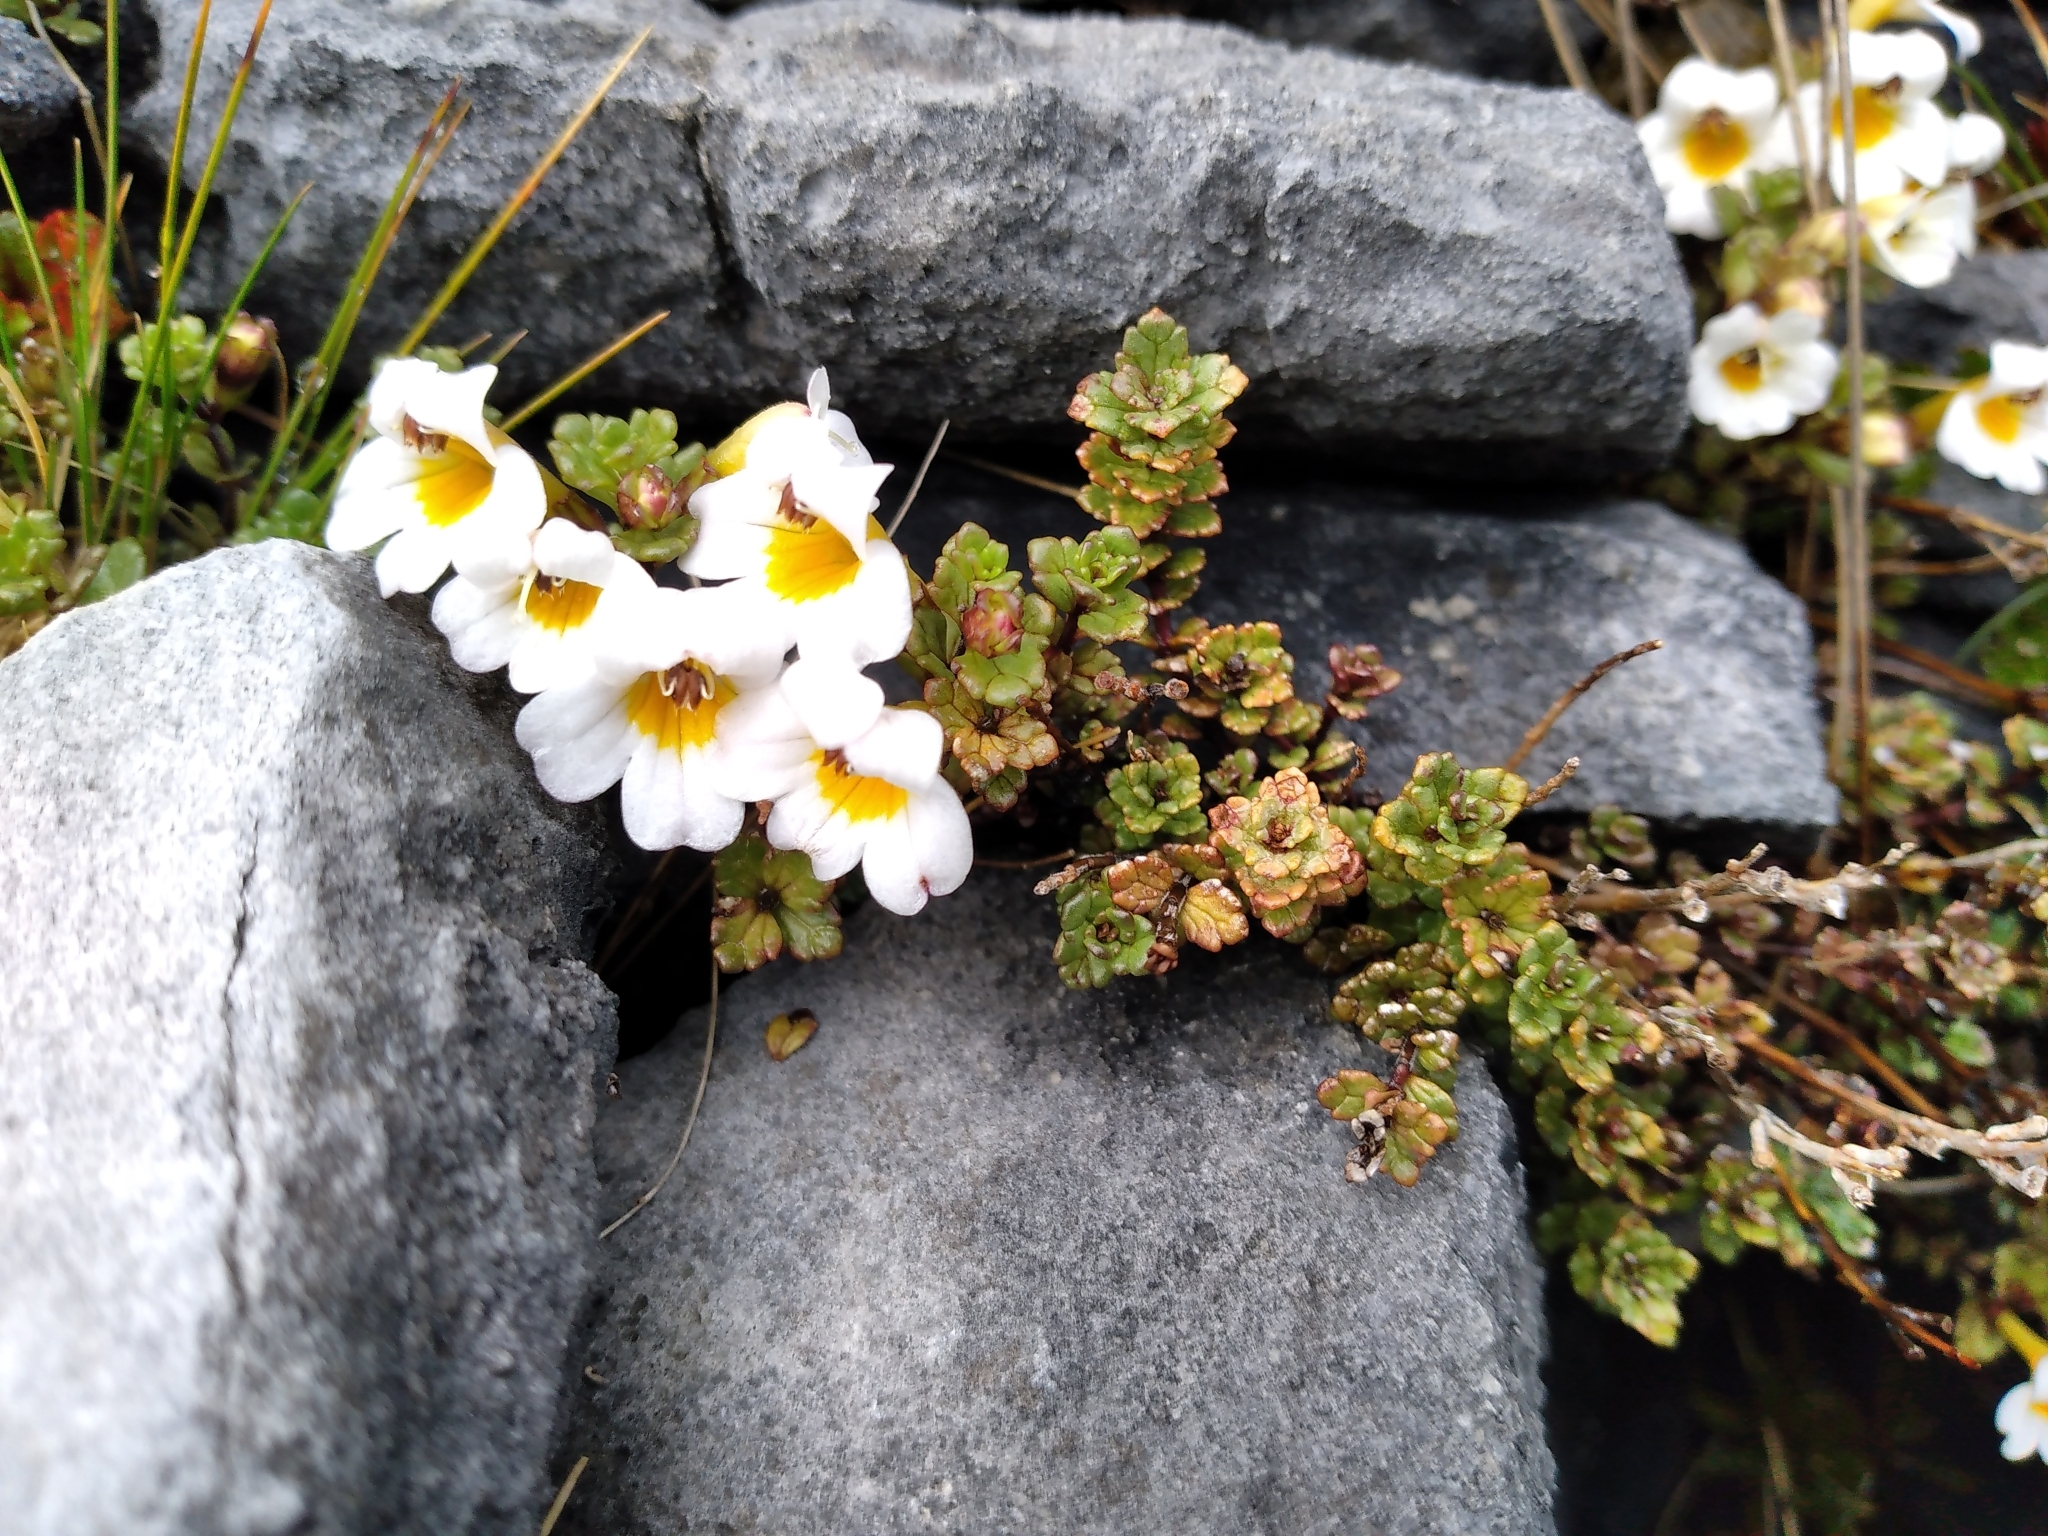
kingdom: Plantae
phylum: Tracheophyta
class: Magnoliopsida
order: Lamiales
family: Orobanchaceae
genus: Euphrasia
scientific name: Euphrasia monroi
